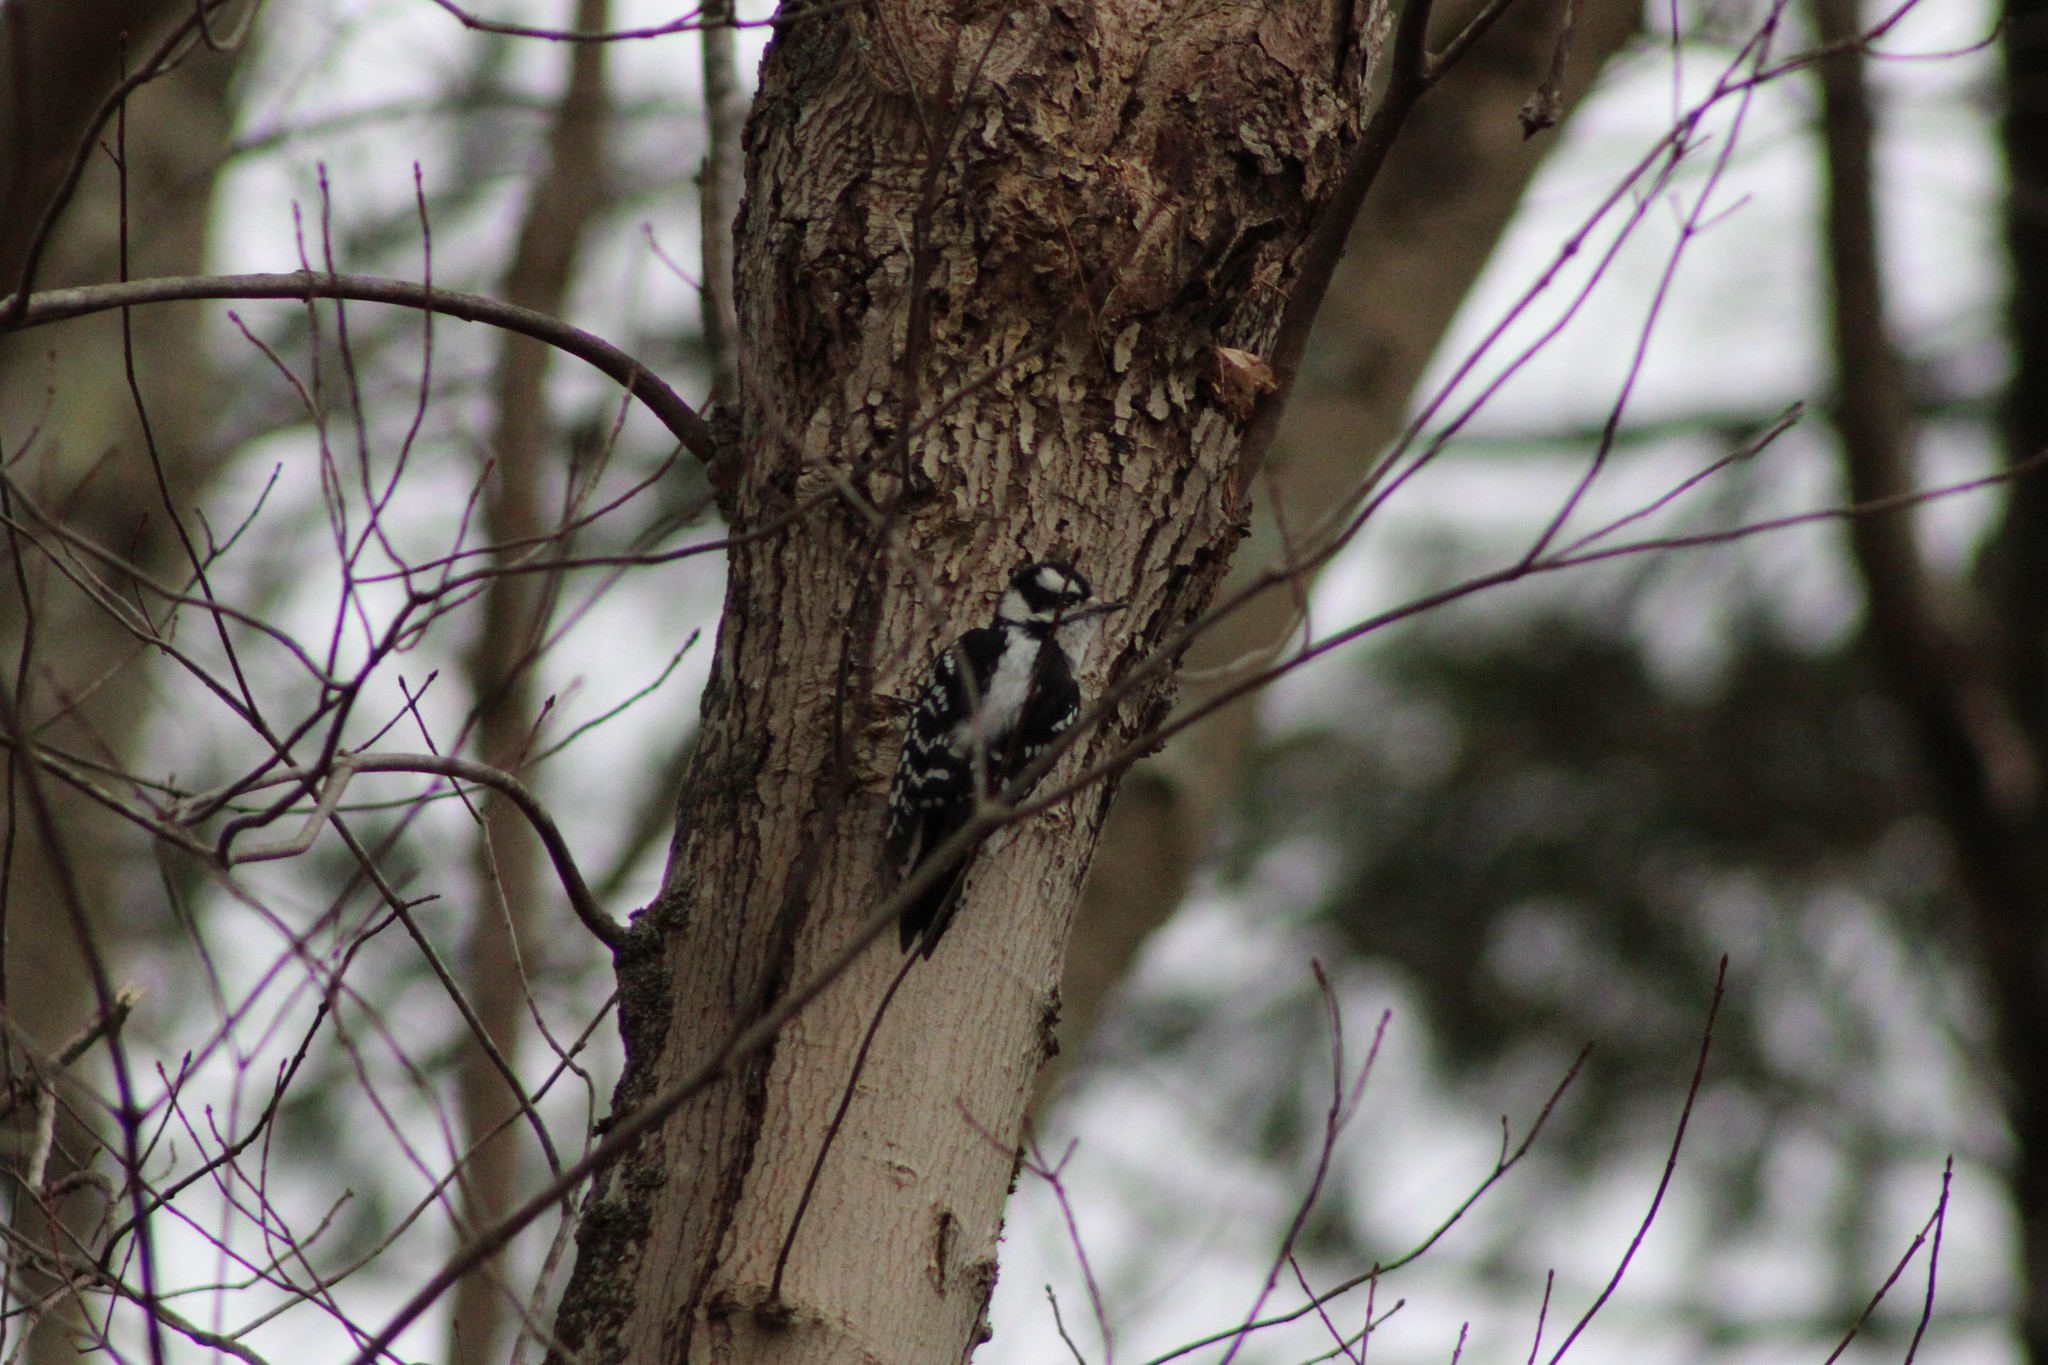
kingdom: Animalia
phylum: Chordata
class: Aves
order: Piciformes
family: Picidae
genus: Dryobates
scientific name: Dryobates pubescens
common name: Downy woodpecker
